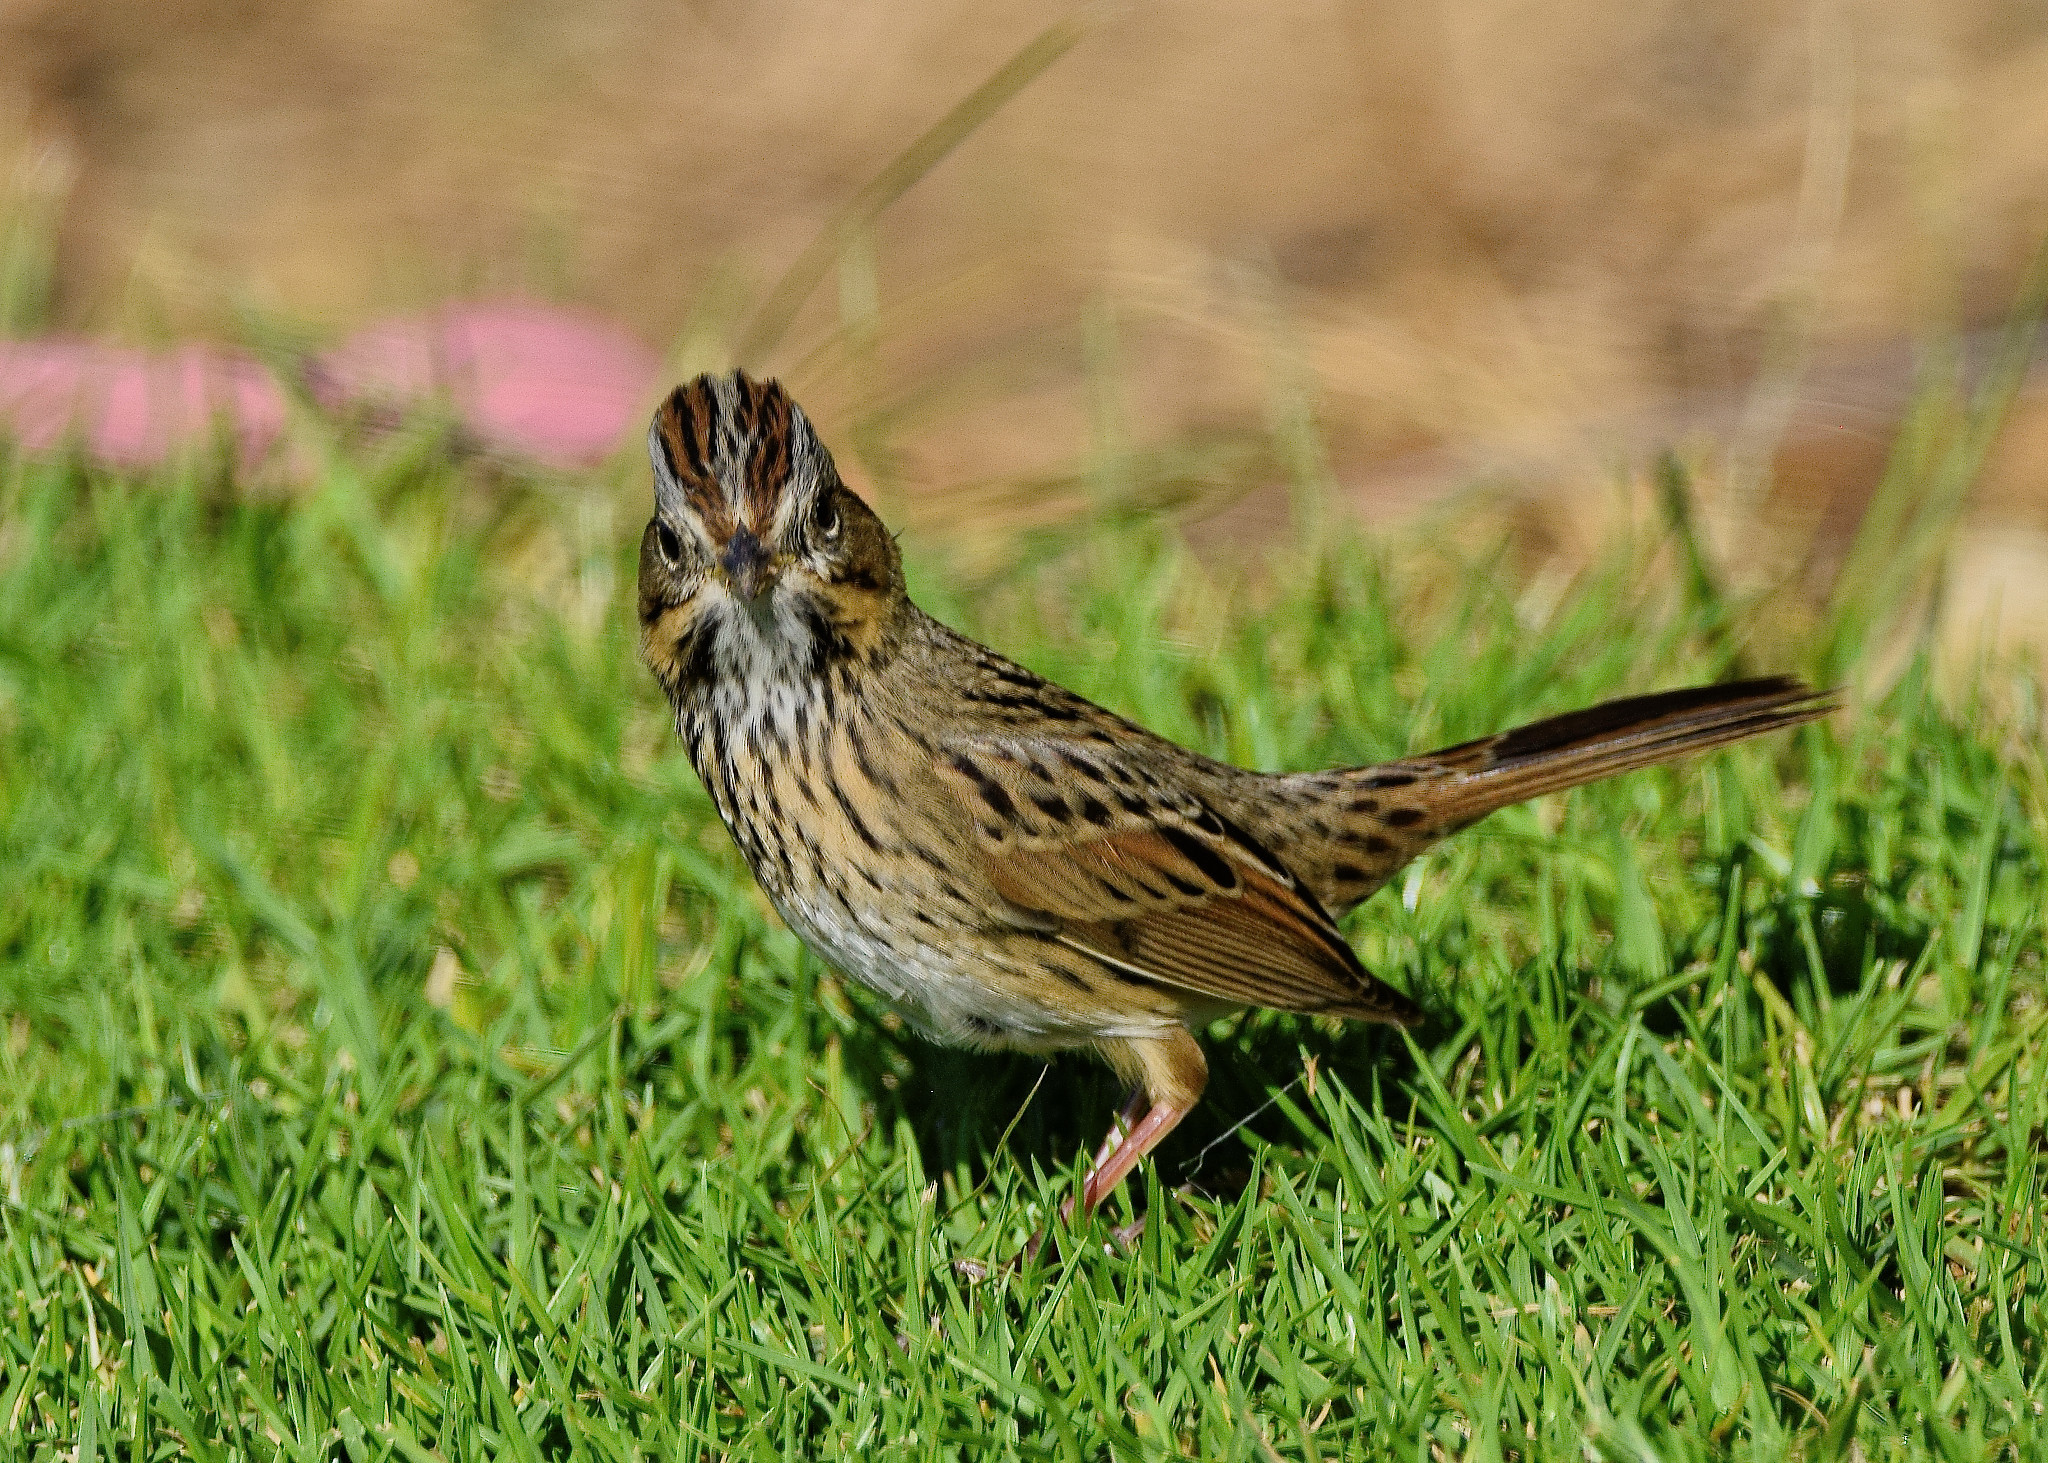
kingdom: Animalia
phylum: Chordata
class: Aves
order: Passeriformes
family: Passerellidae
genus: Melospiza
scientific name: Melospiza lincolnii
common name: Lincoln's sparrow
